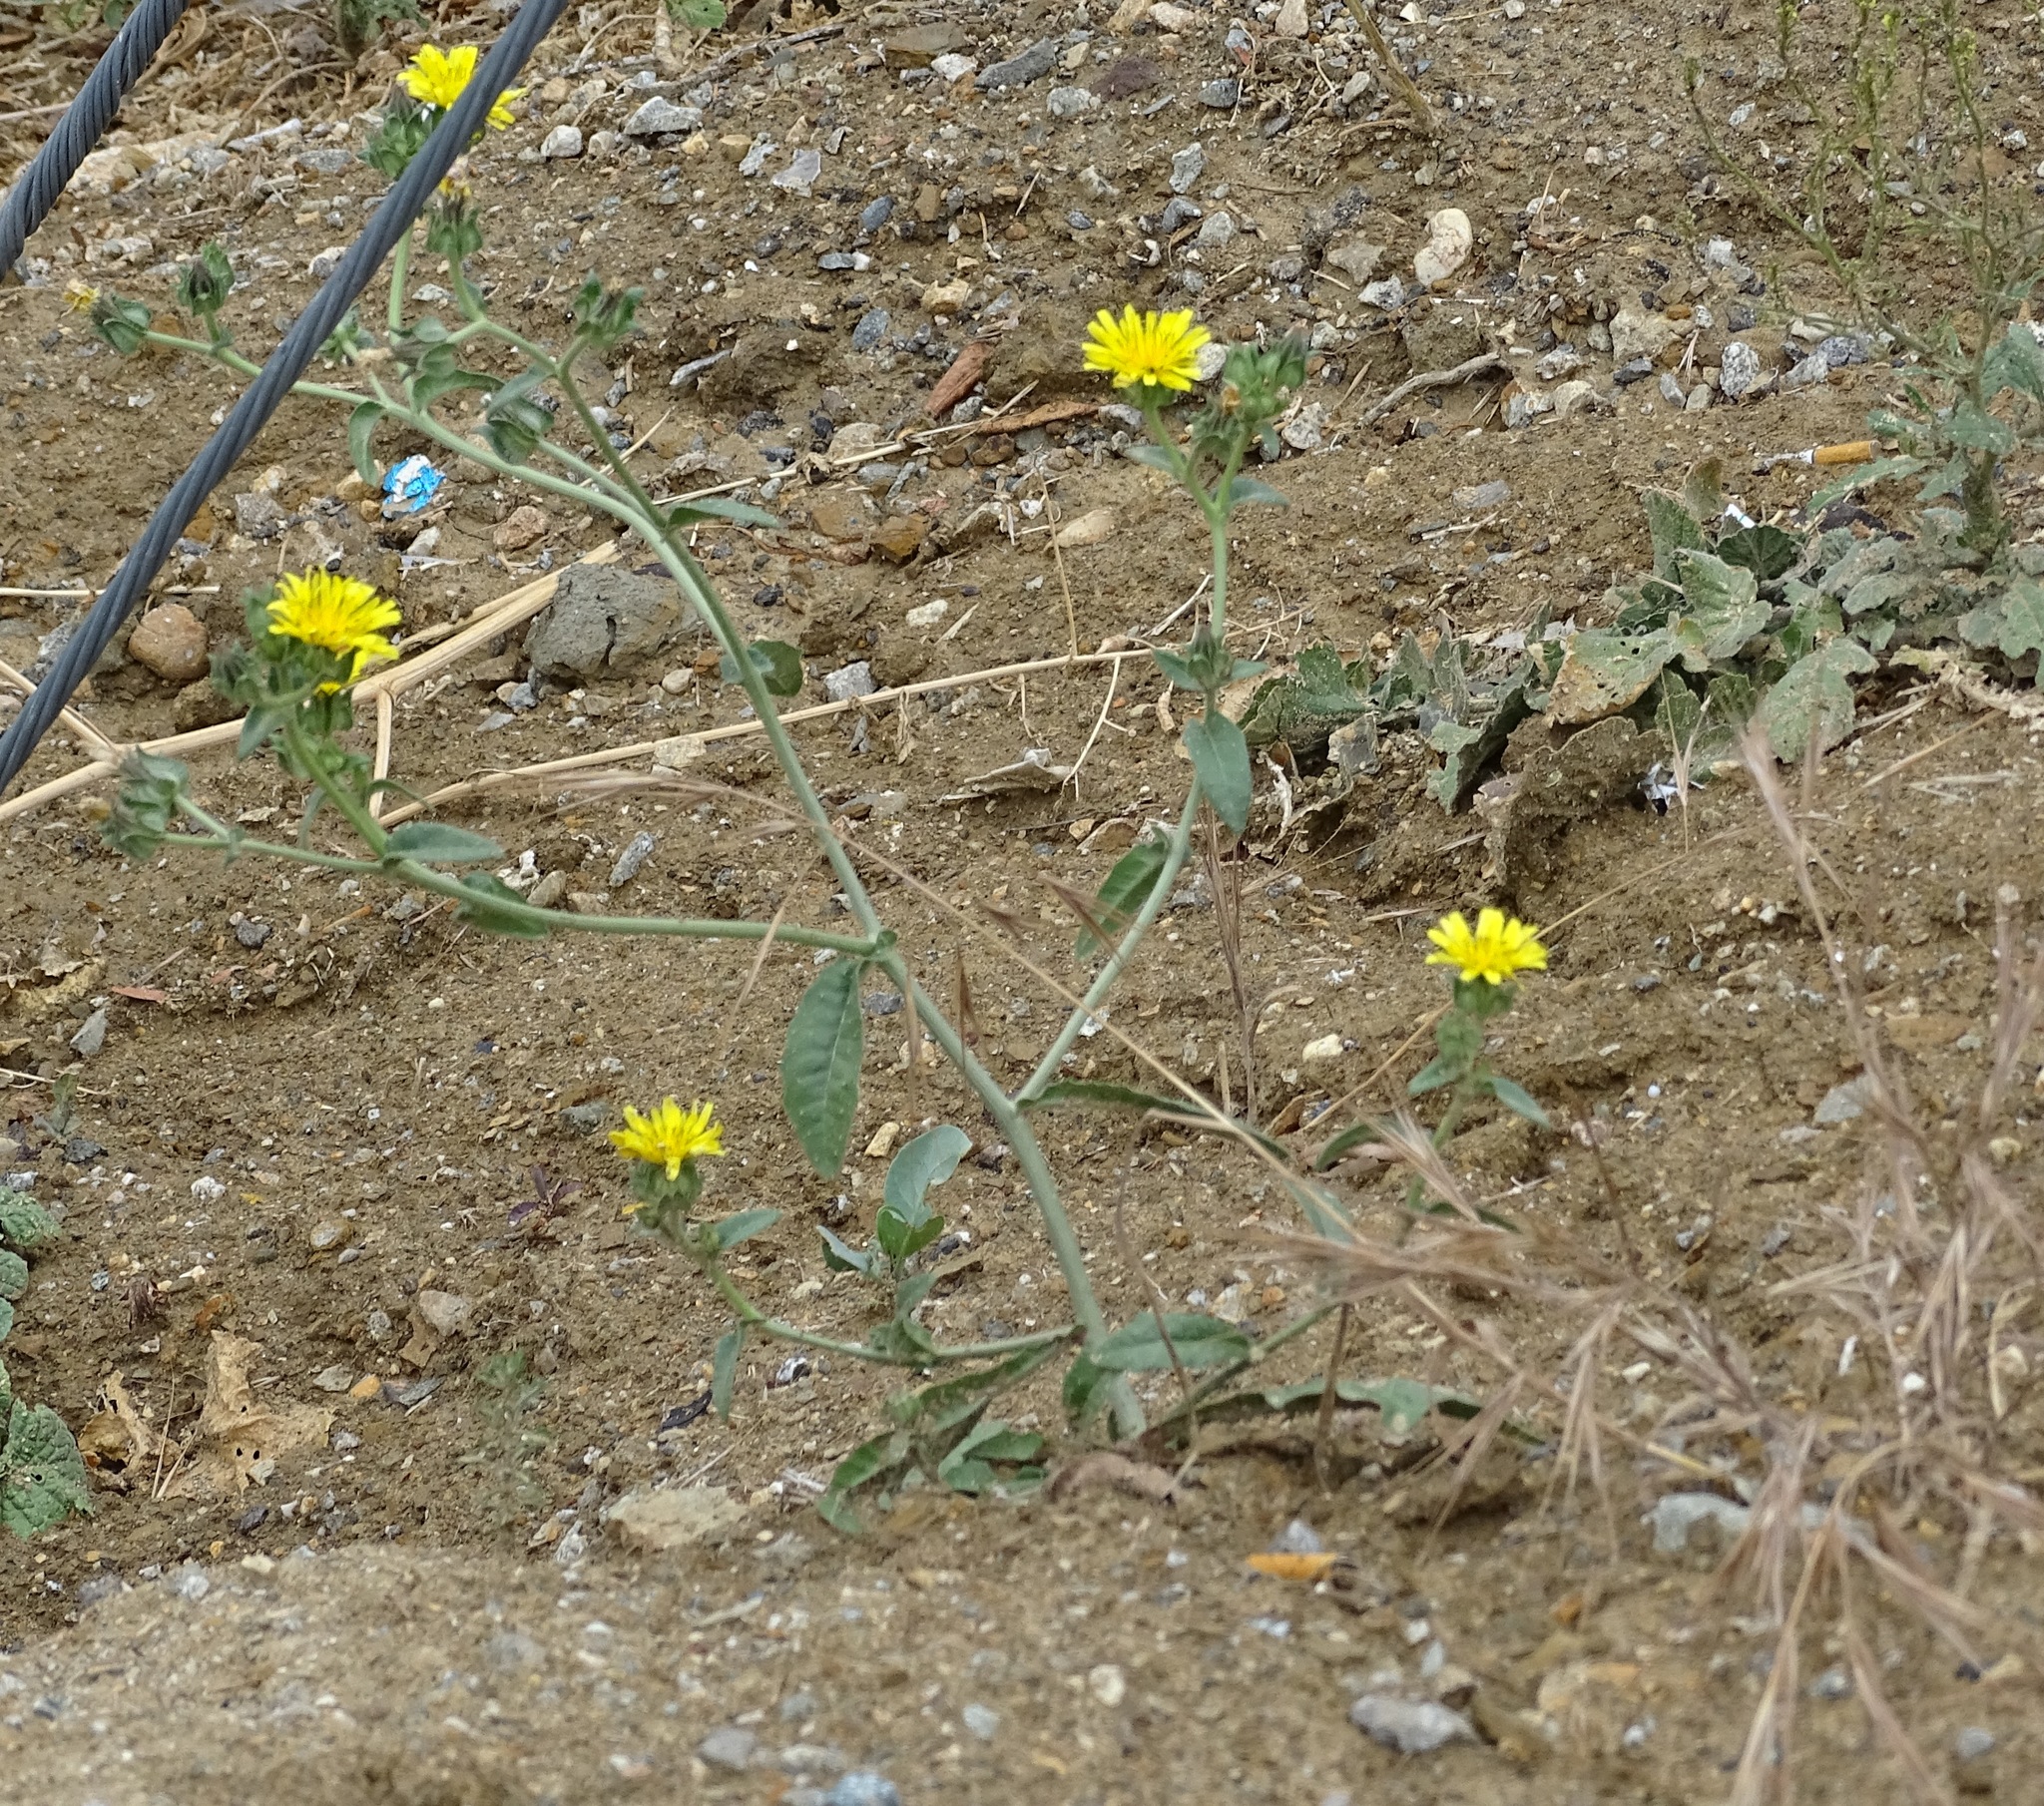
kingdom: Plantae
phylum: Tracheophyta
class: Magnoliopsida
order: Asterales
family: Asteraceae
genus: Helminthotheca
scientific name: Helminthotheca echioides
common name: Ox-tongue
